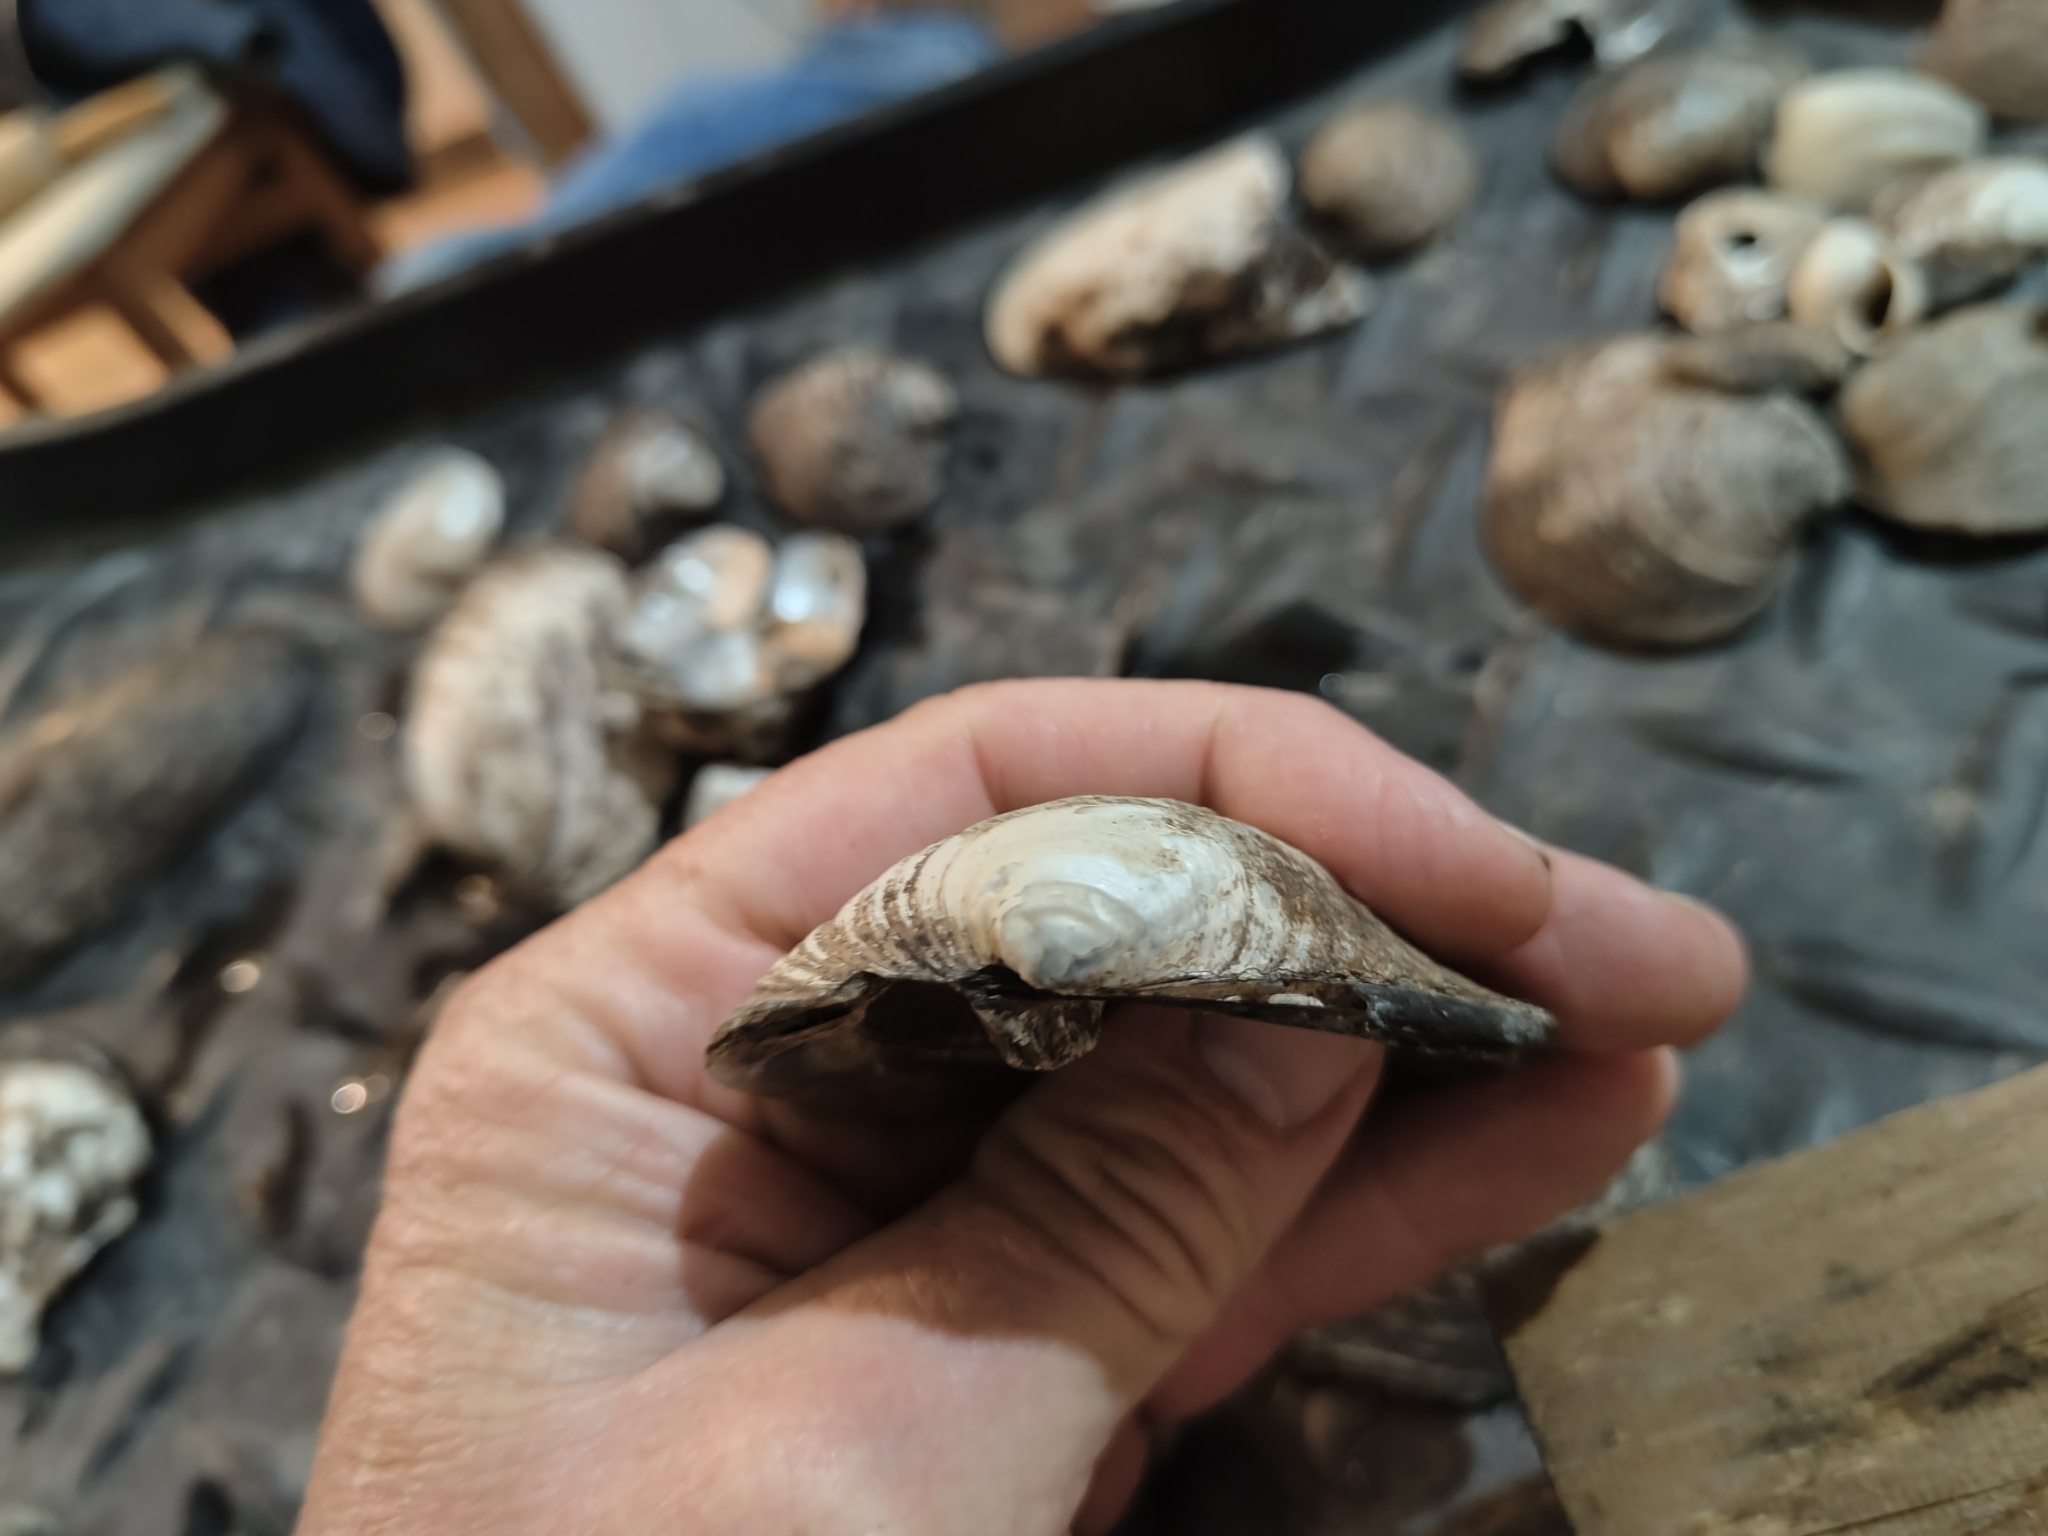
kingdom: Animalia
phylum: Mollusca
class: Bivalvia
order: Unionida
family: Unionidae
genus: Amblema
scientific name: Amblema plicata
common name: Threeridge
